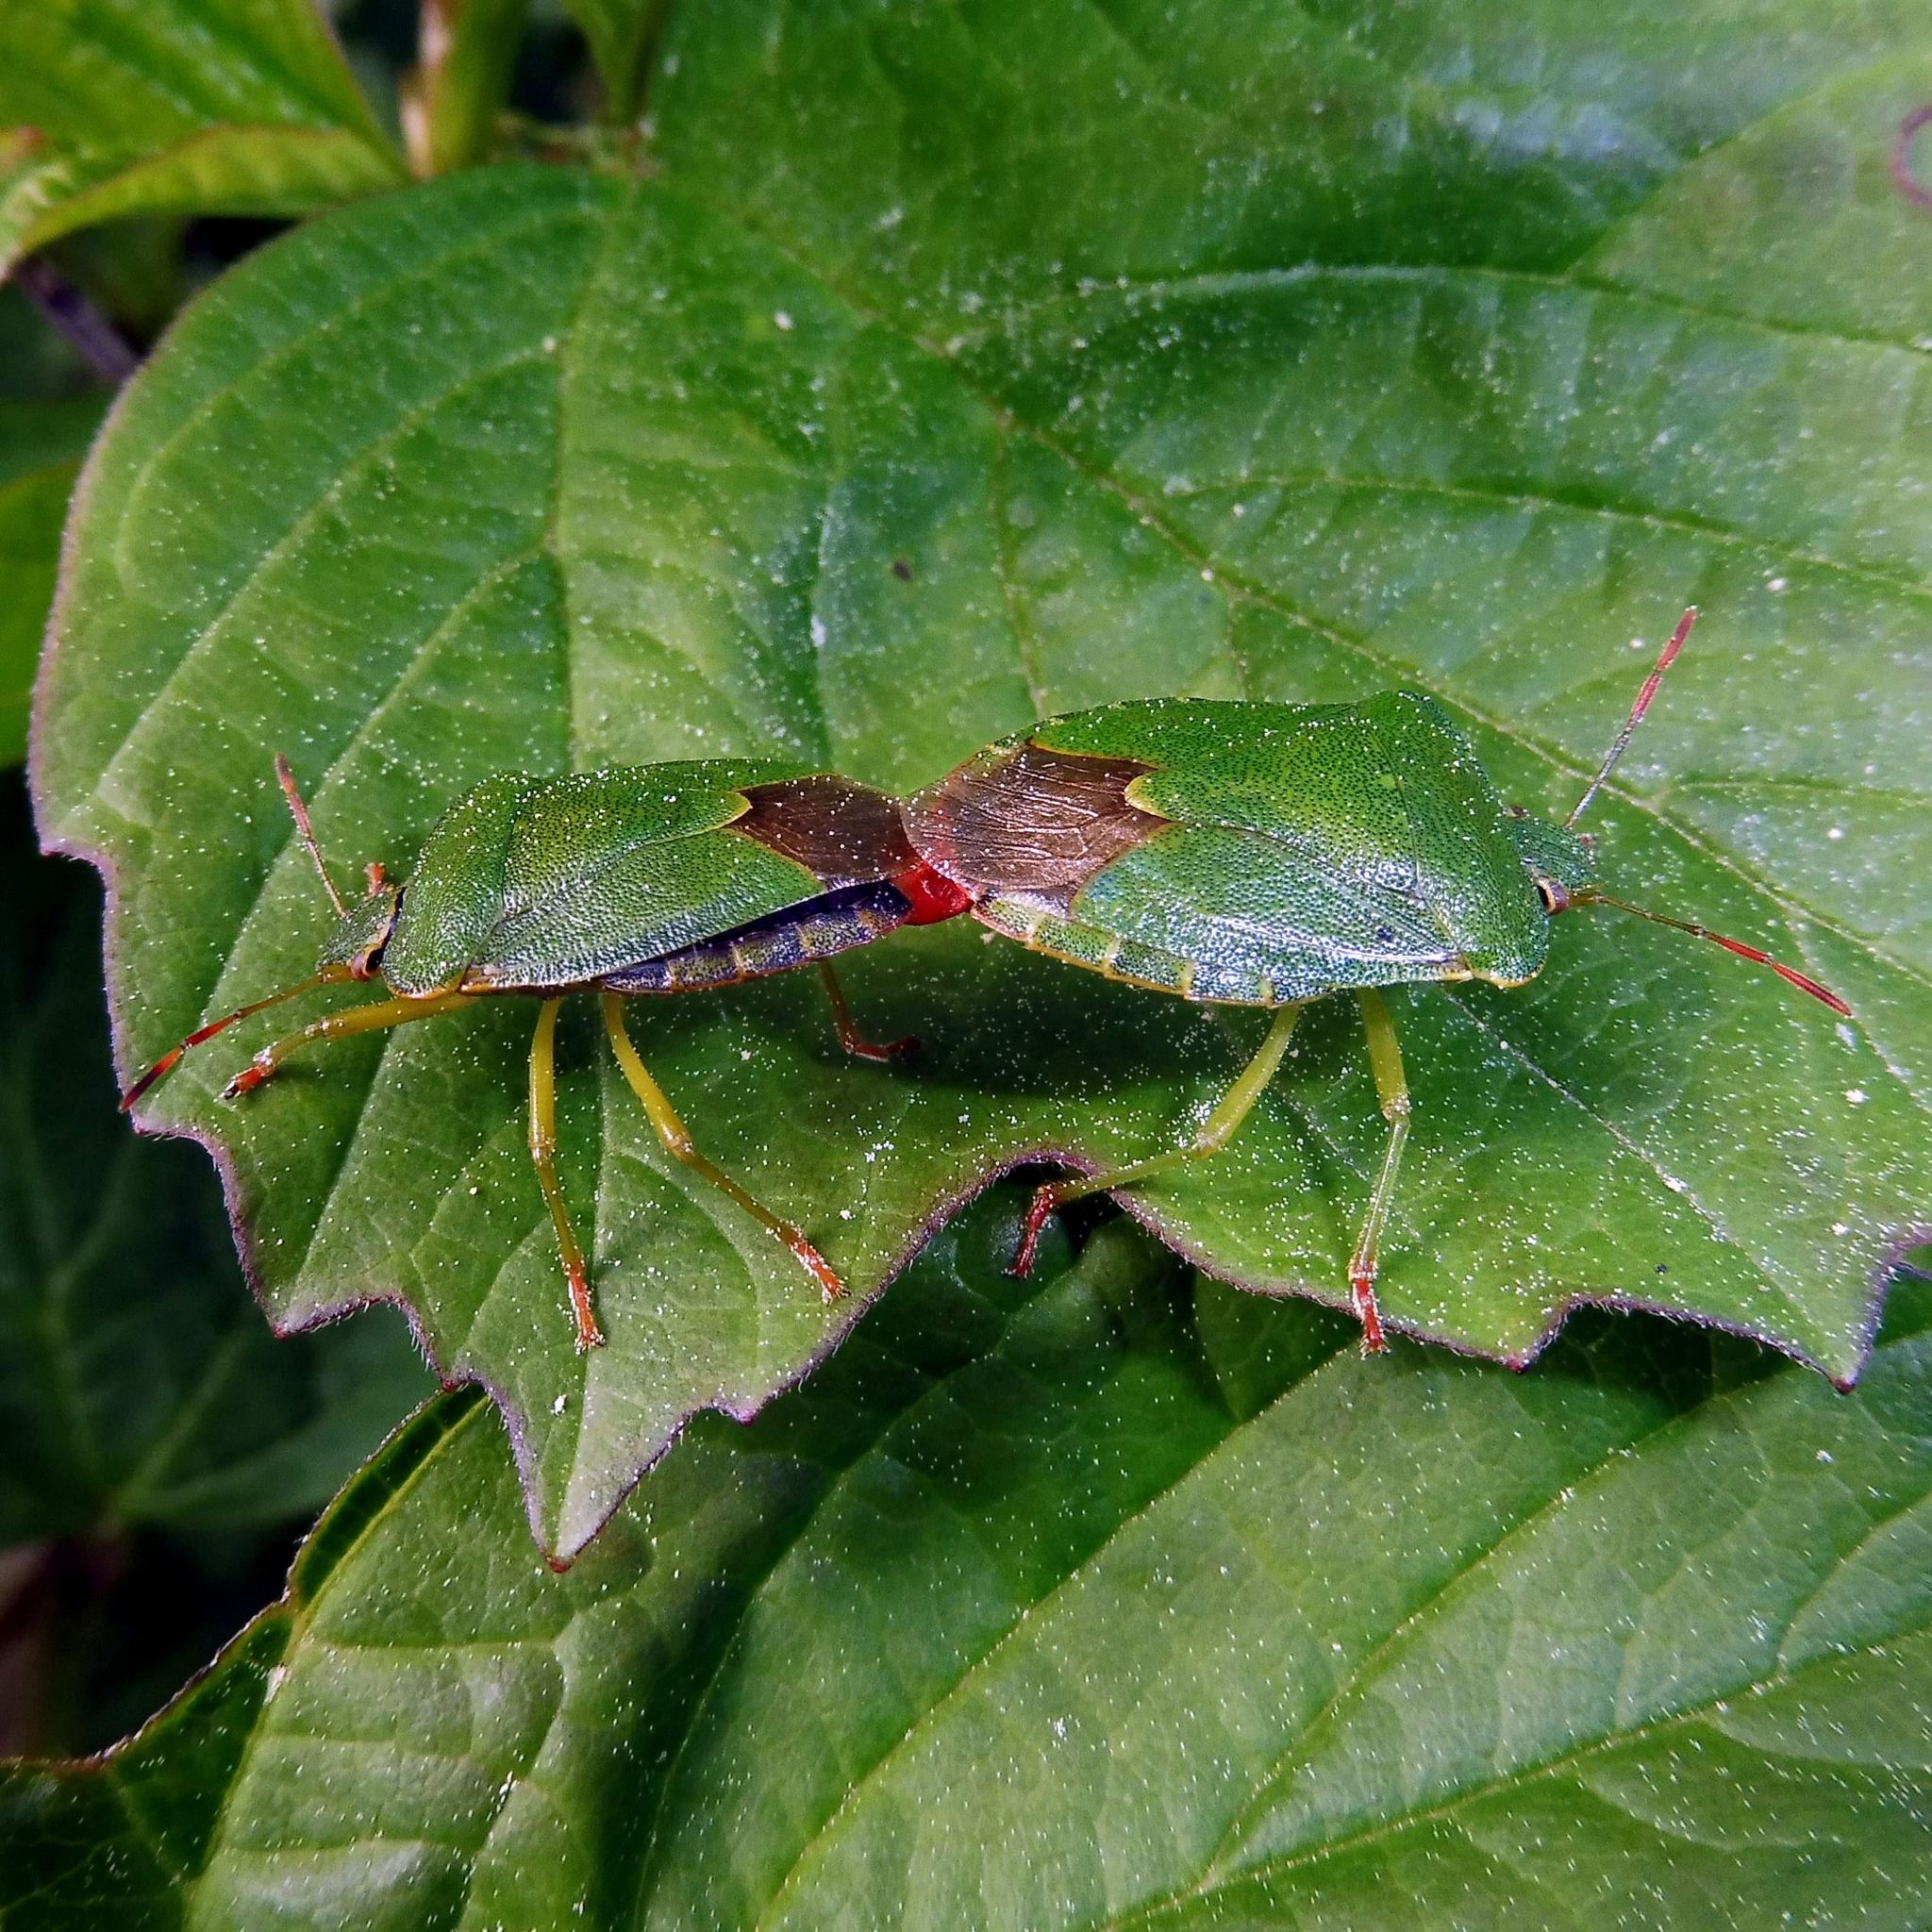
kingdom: Animalia
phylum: Arthropoda
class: Insecta
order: Hemiptera
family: Pentatomidae
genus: Palomena
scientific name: Palomena prasina
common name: Green shieldbug
